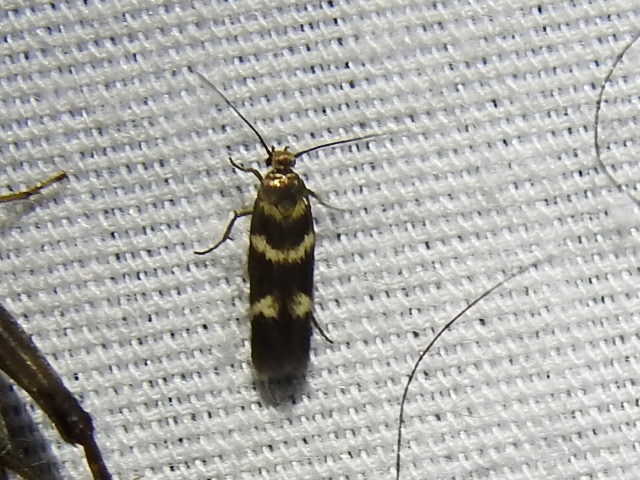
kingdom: Animalia
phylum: Arthropoda
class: Insecta
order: Lepidoptera
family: Scythrididae
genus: Scythris
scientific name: Scythris trivinctella
